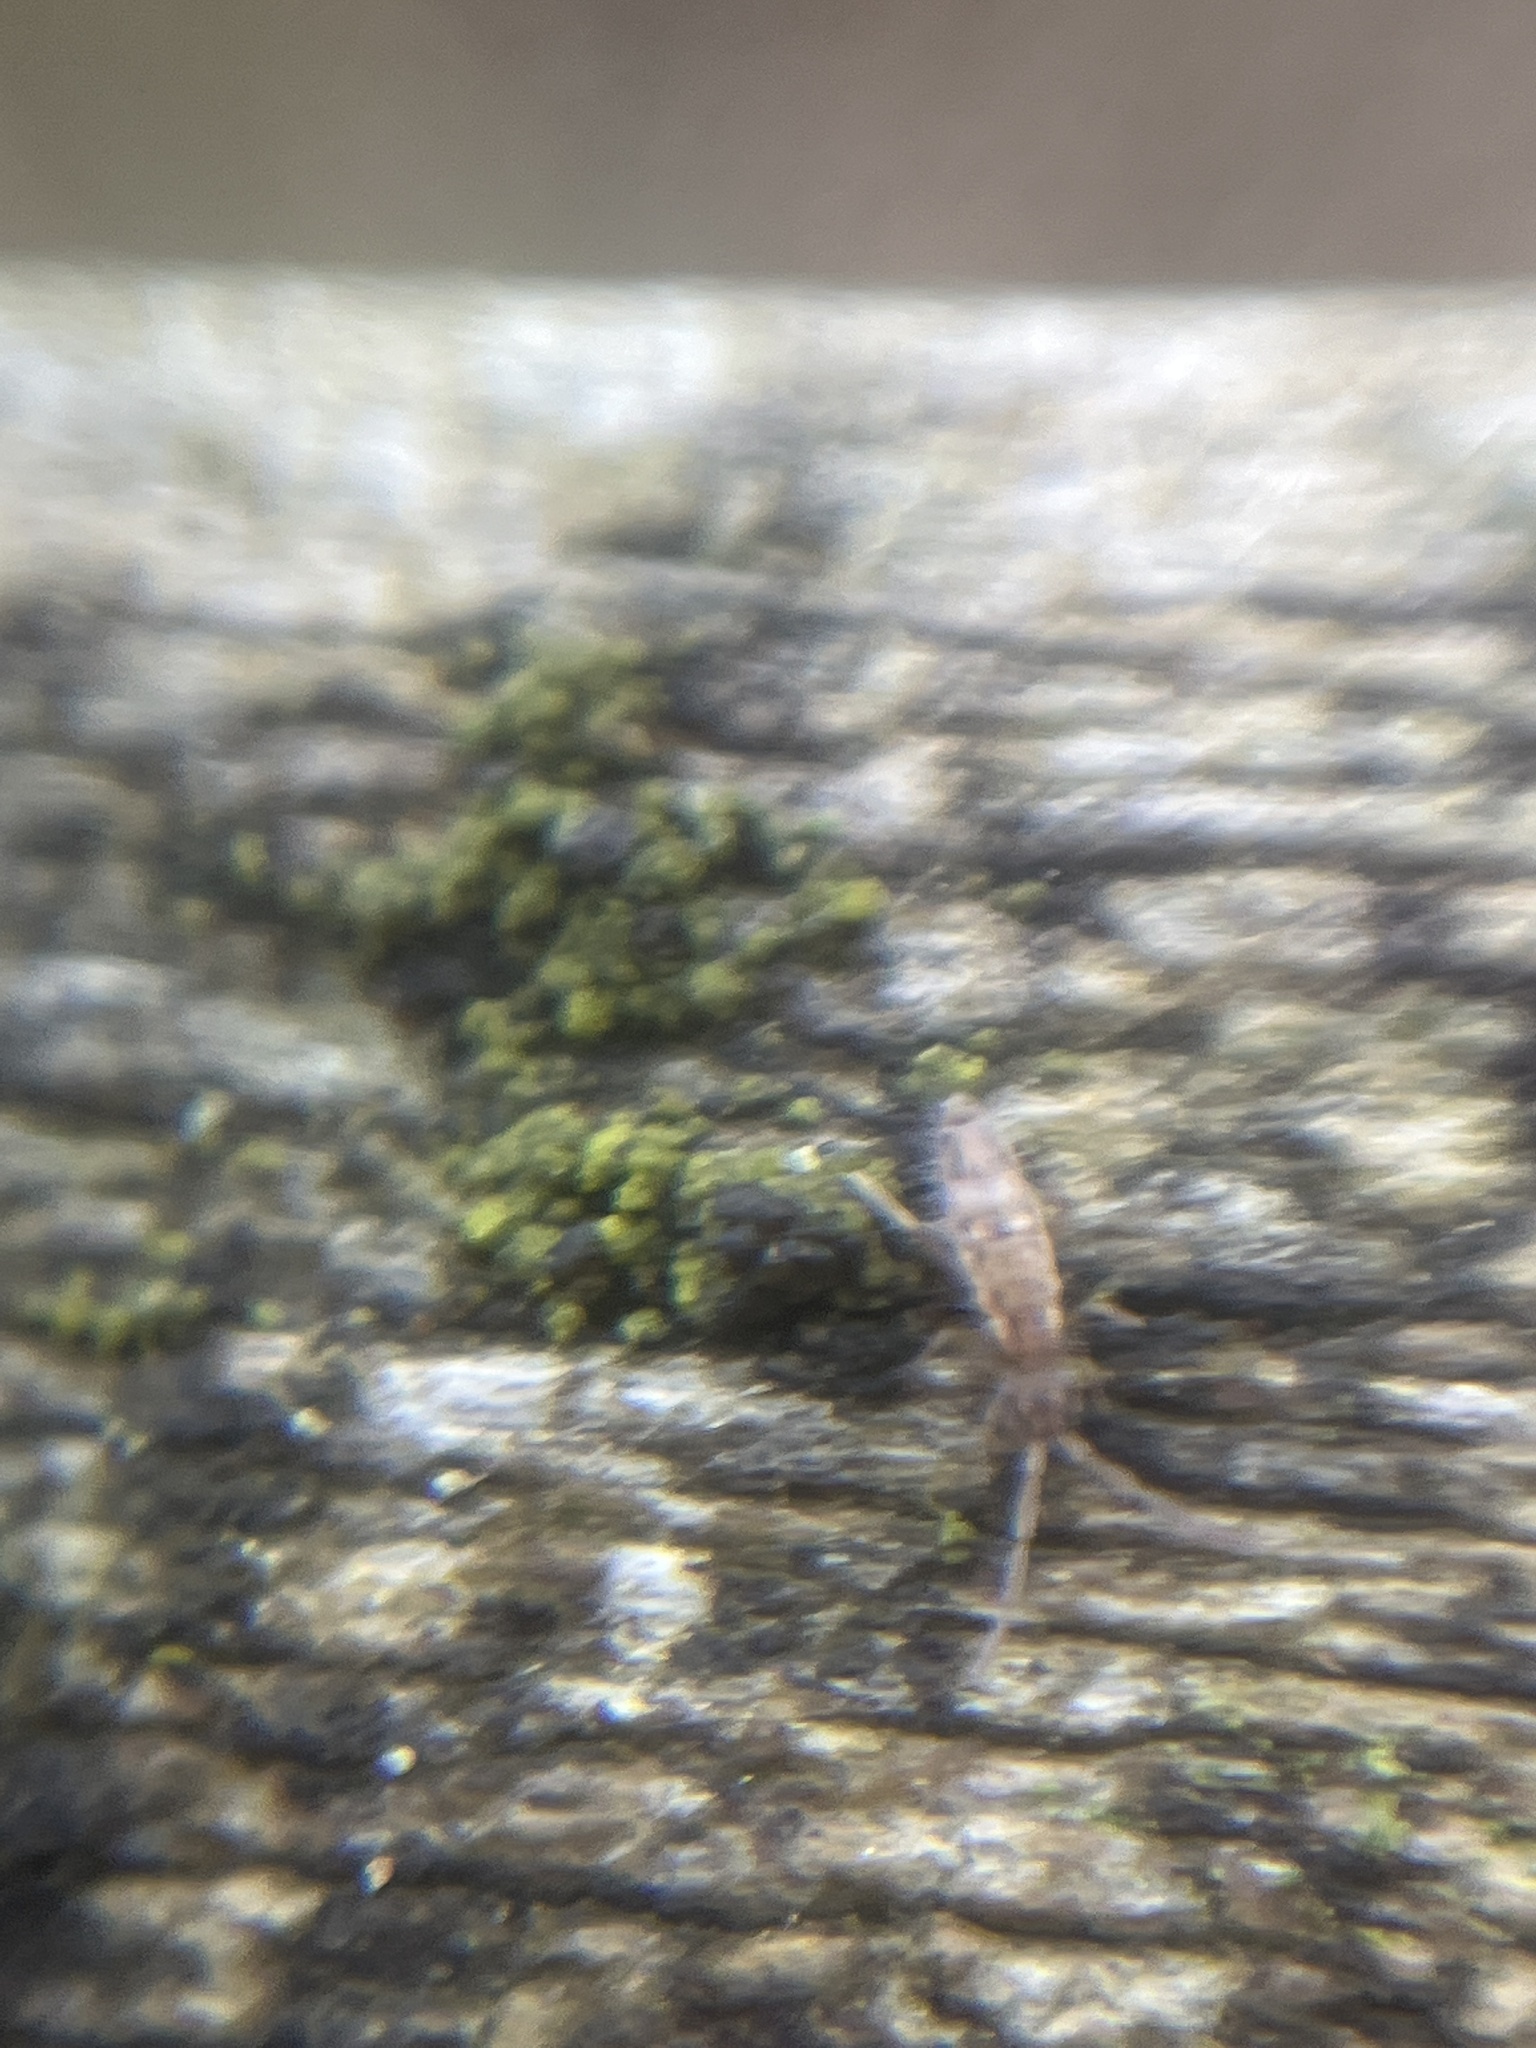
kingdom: Animalia
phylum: Arthropoda
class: Collembola
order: Entomobryomorpha
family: Entomobryidae
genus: Entomobrya
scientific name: Entomobrya intermedia
